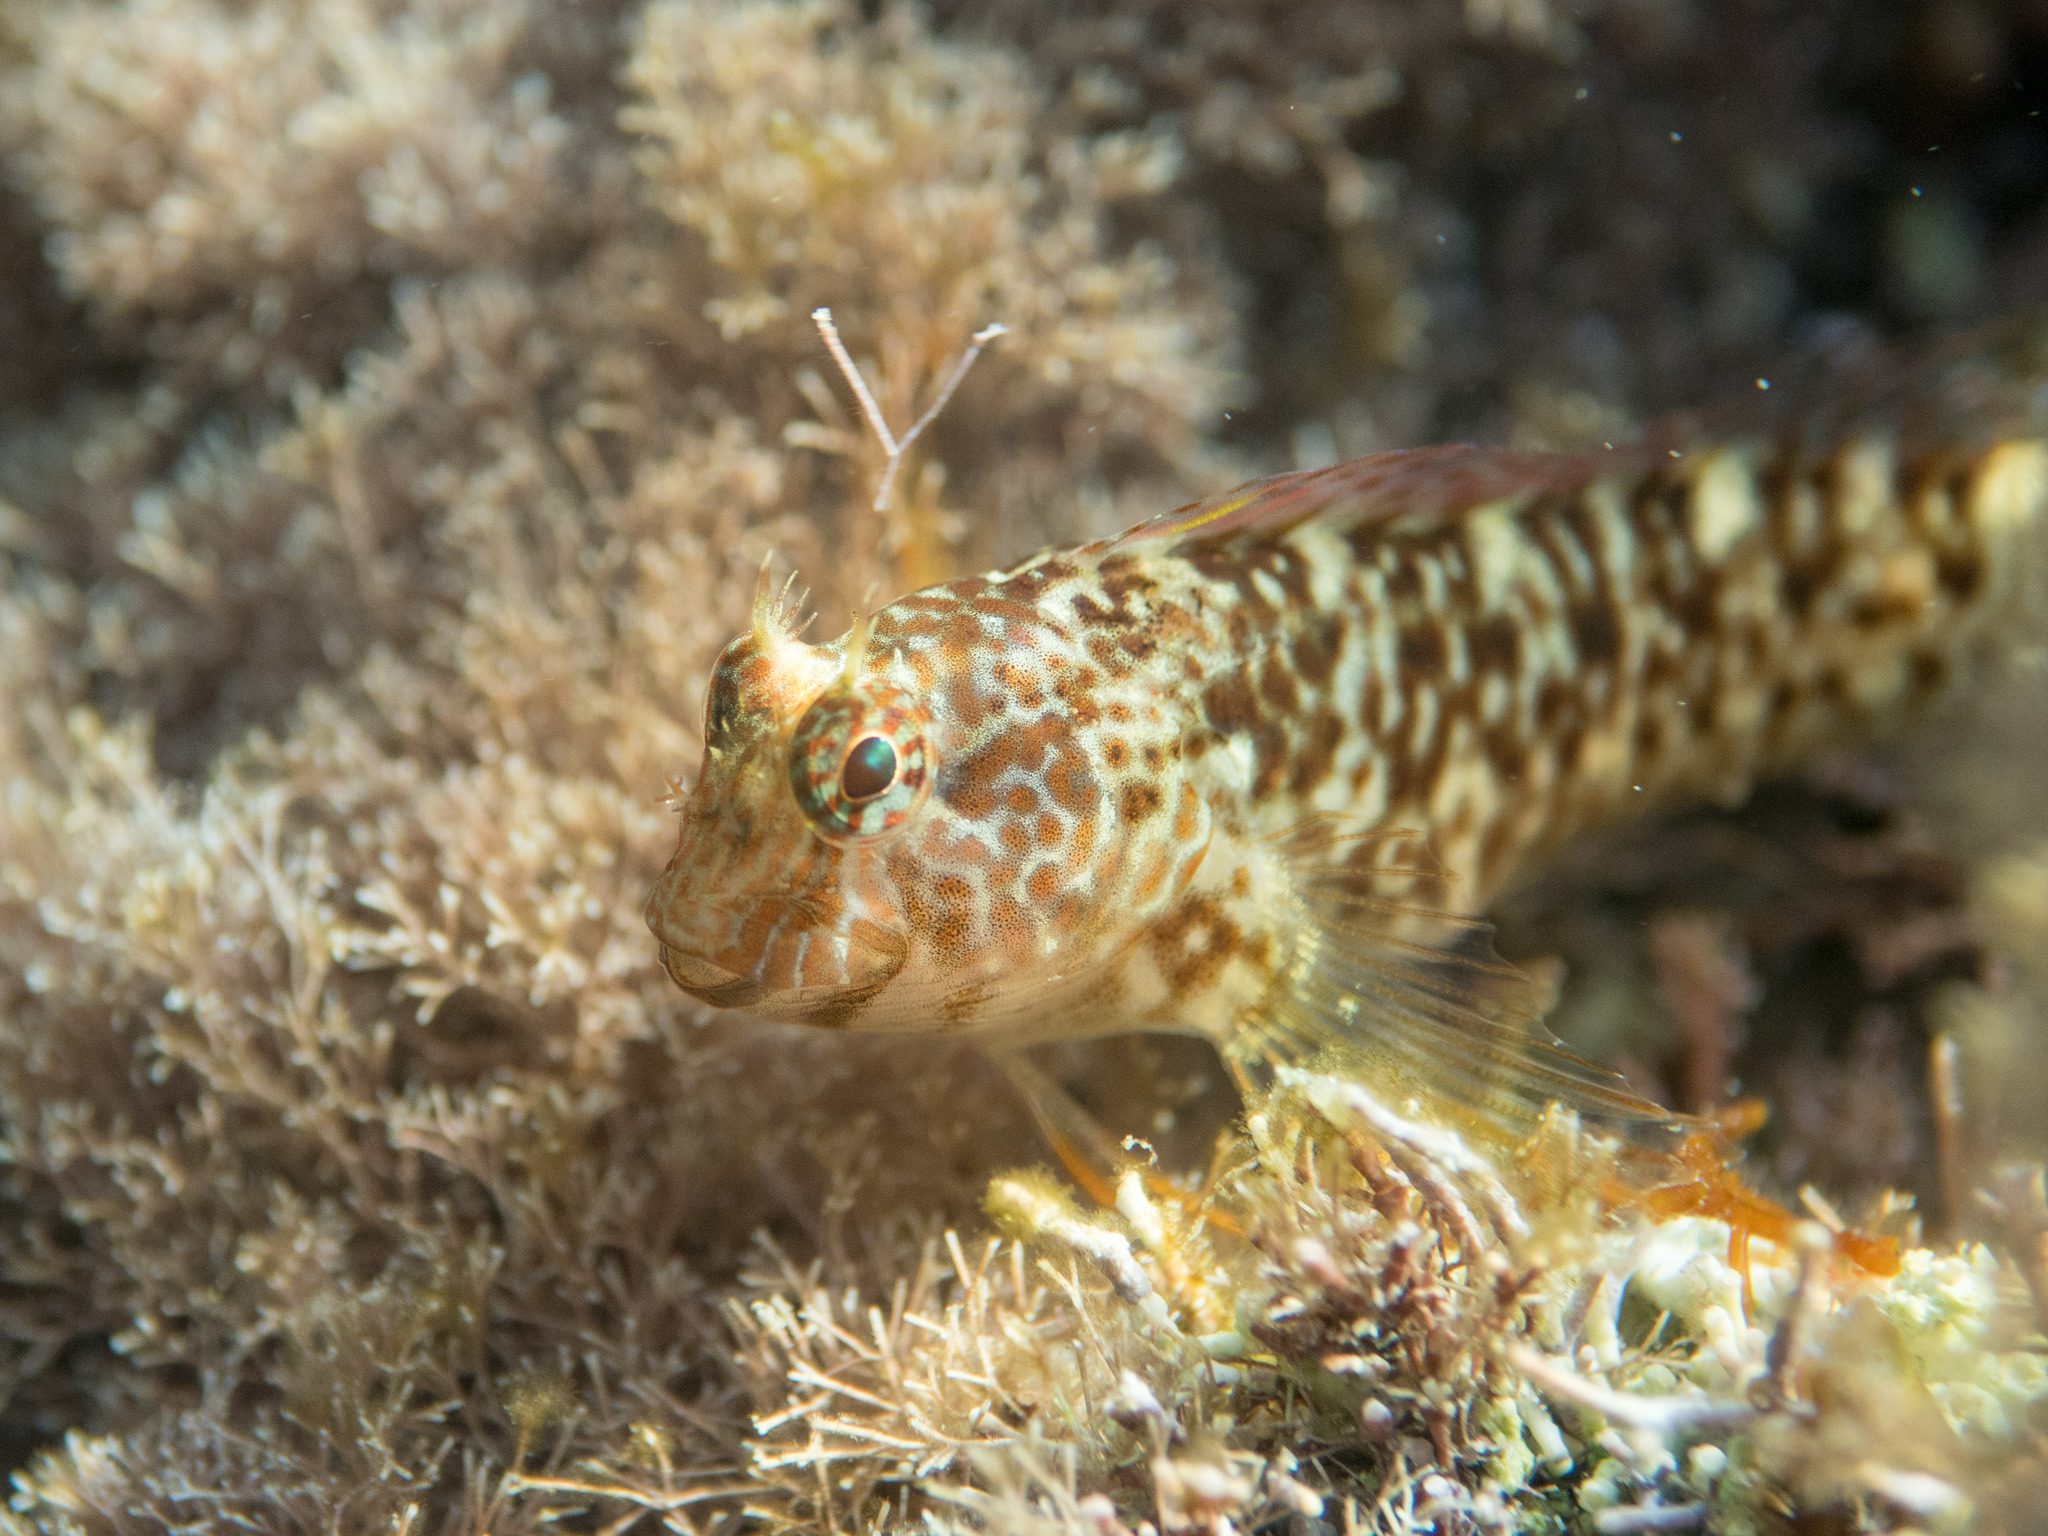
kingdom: Animalia
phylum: Chordata
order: Perciformes
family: Blenniidae
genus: Parablennius
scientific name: Parablennius zvonimiri
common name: Red blenny
